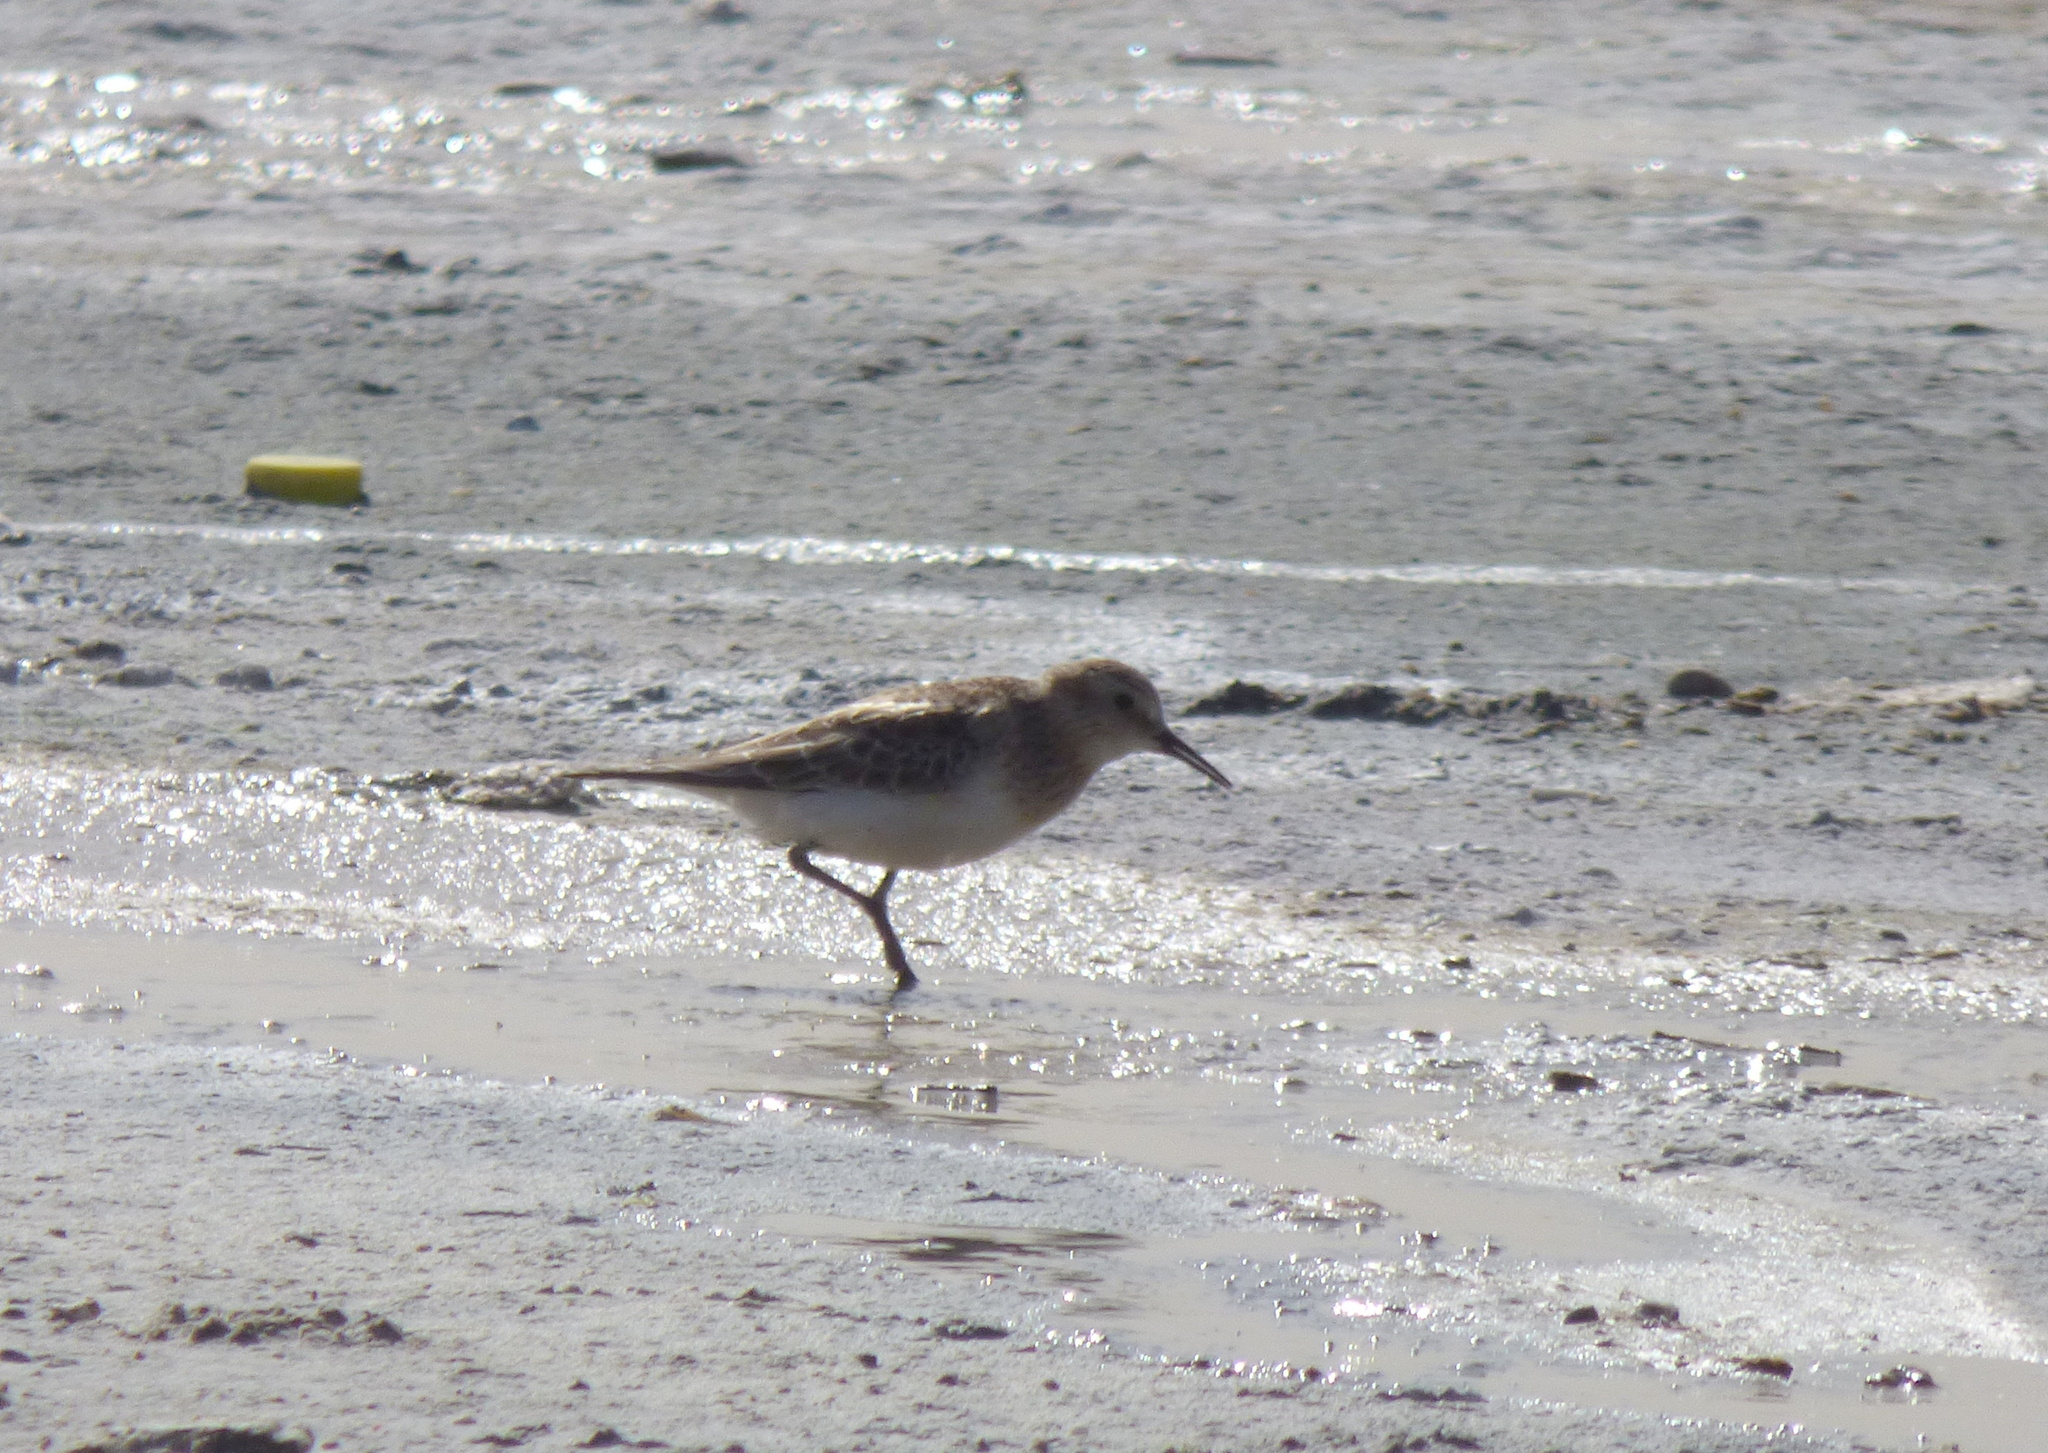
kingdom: Animalia
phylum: Chordata
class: Aves
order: Charadriiformes
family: Scolopacidae
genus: Calidris
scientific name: Calidris bairdii
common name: Baird's sandpiper
